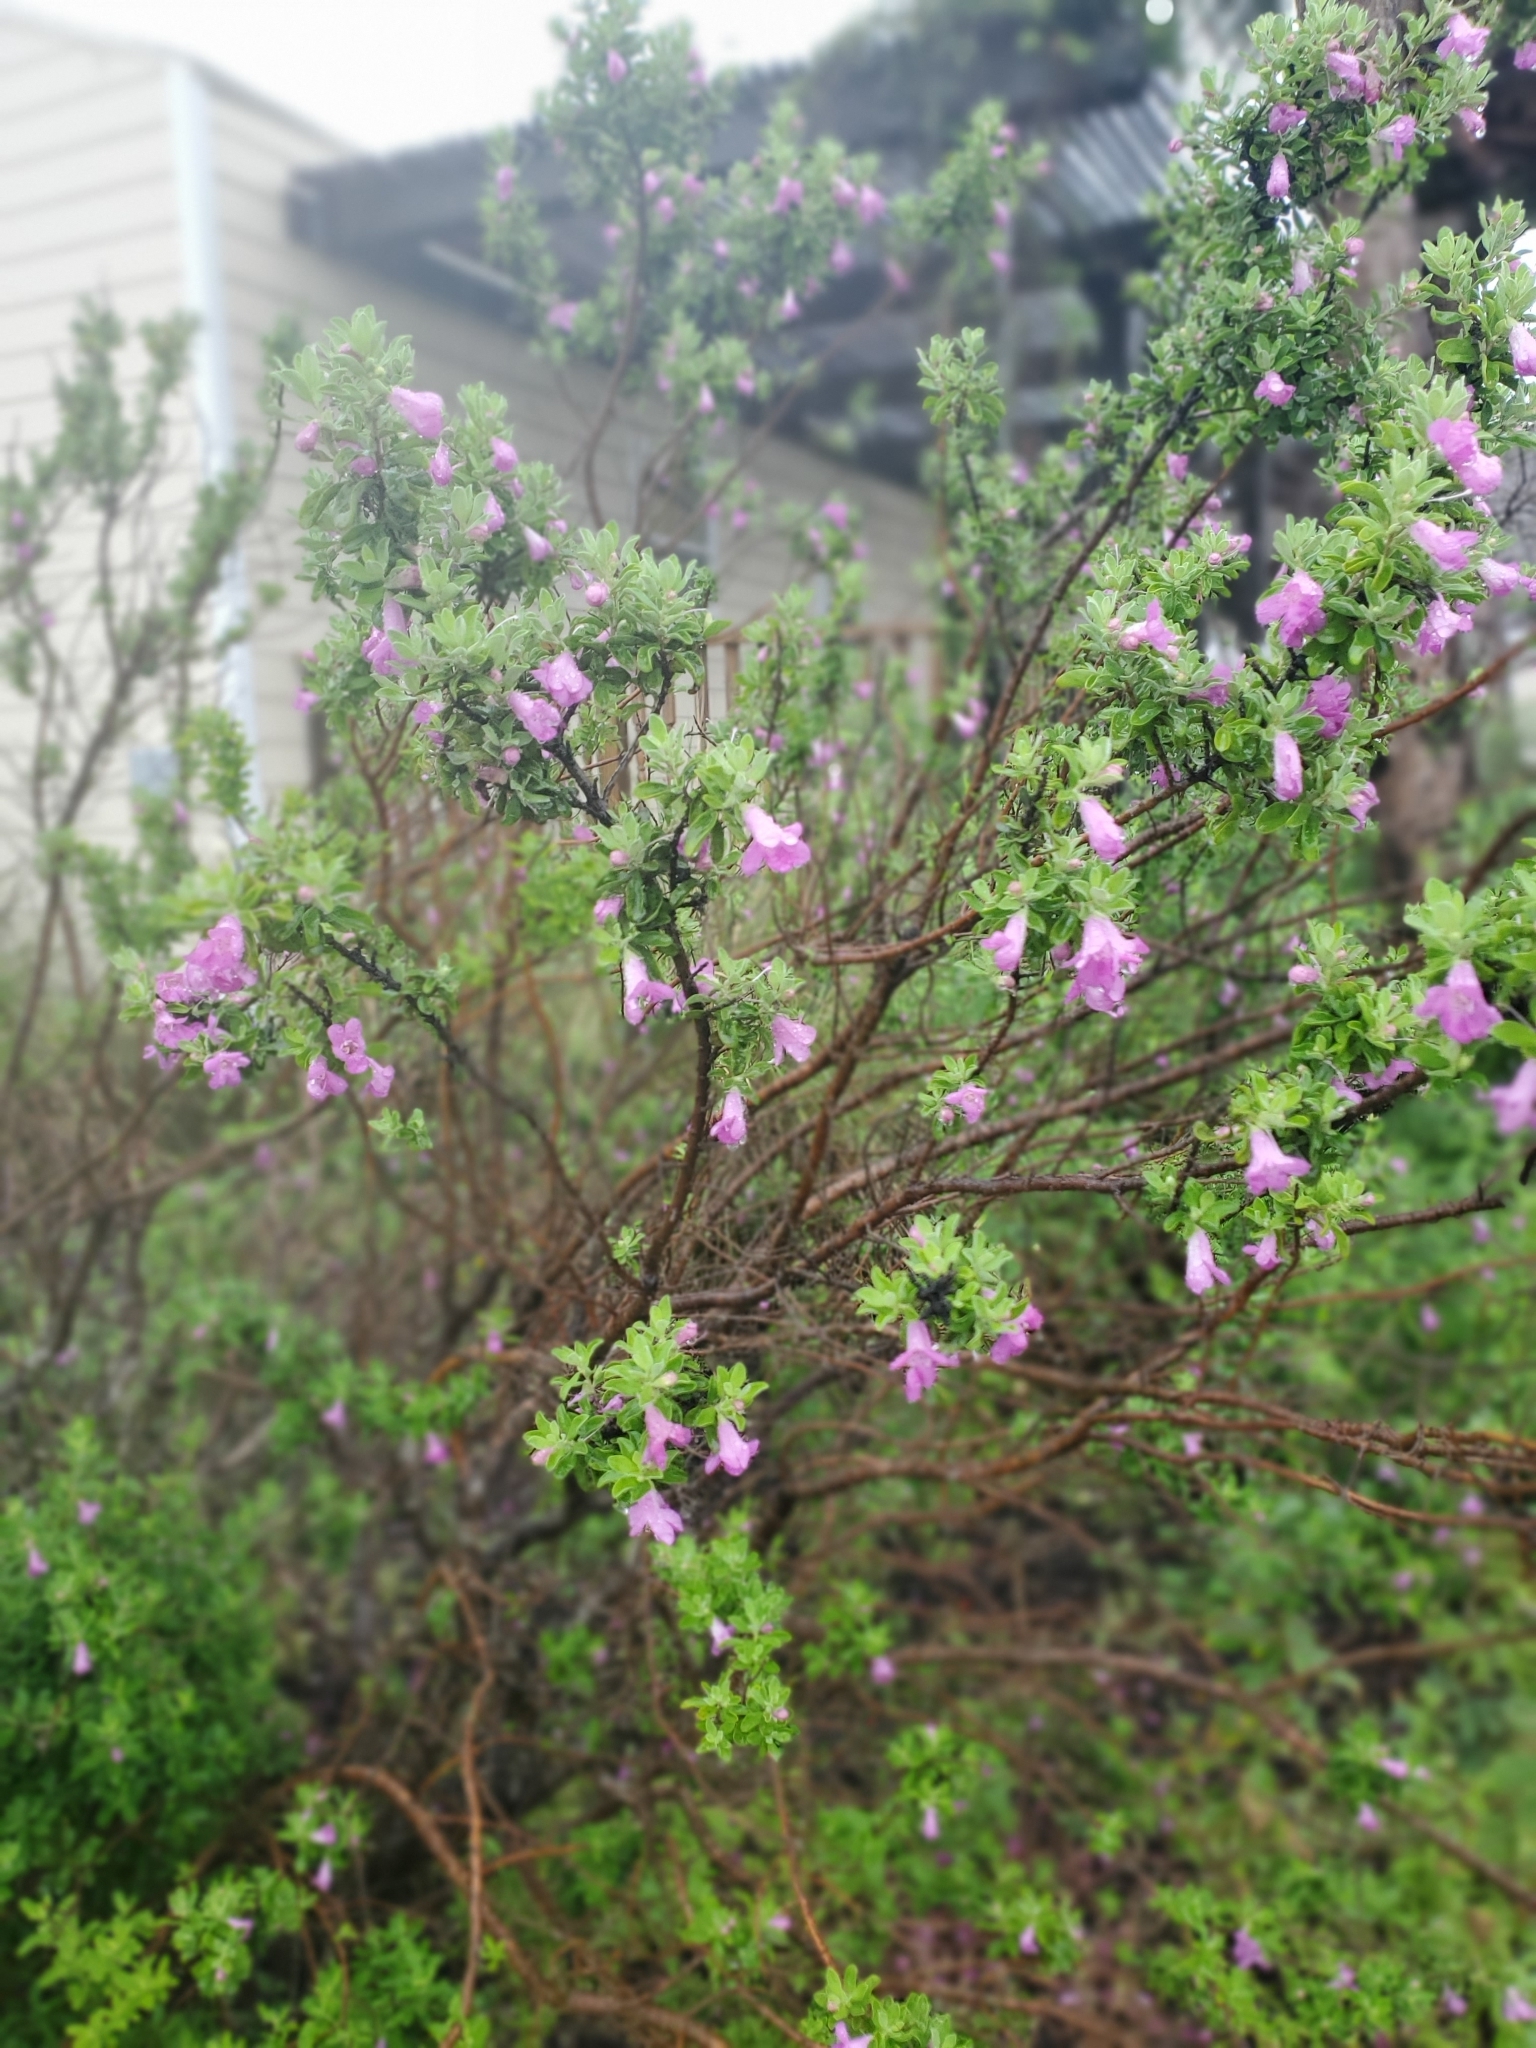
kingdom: Plantae
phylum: Tracheophyta
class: Magnoliopsida
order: Lamiales
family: Scrophulariaceae
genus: Leucophyllum
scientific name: Leucophyllum frutescens
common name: Texas silverleaf
